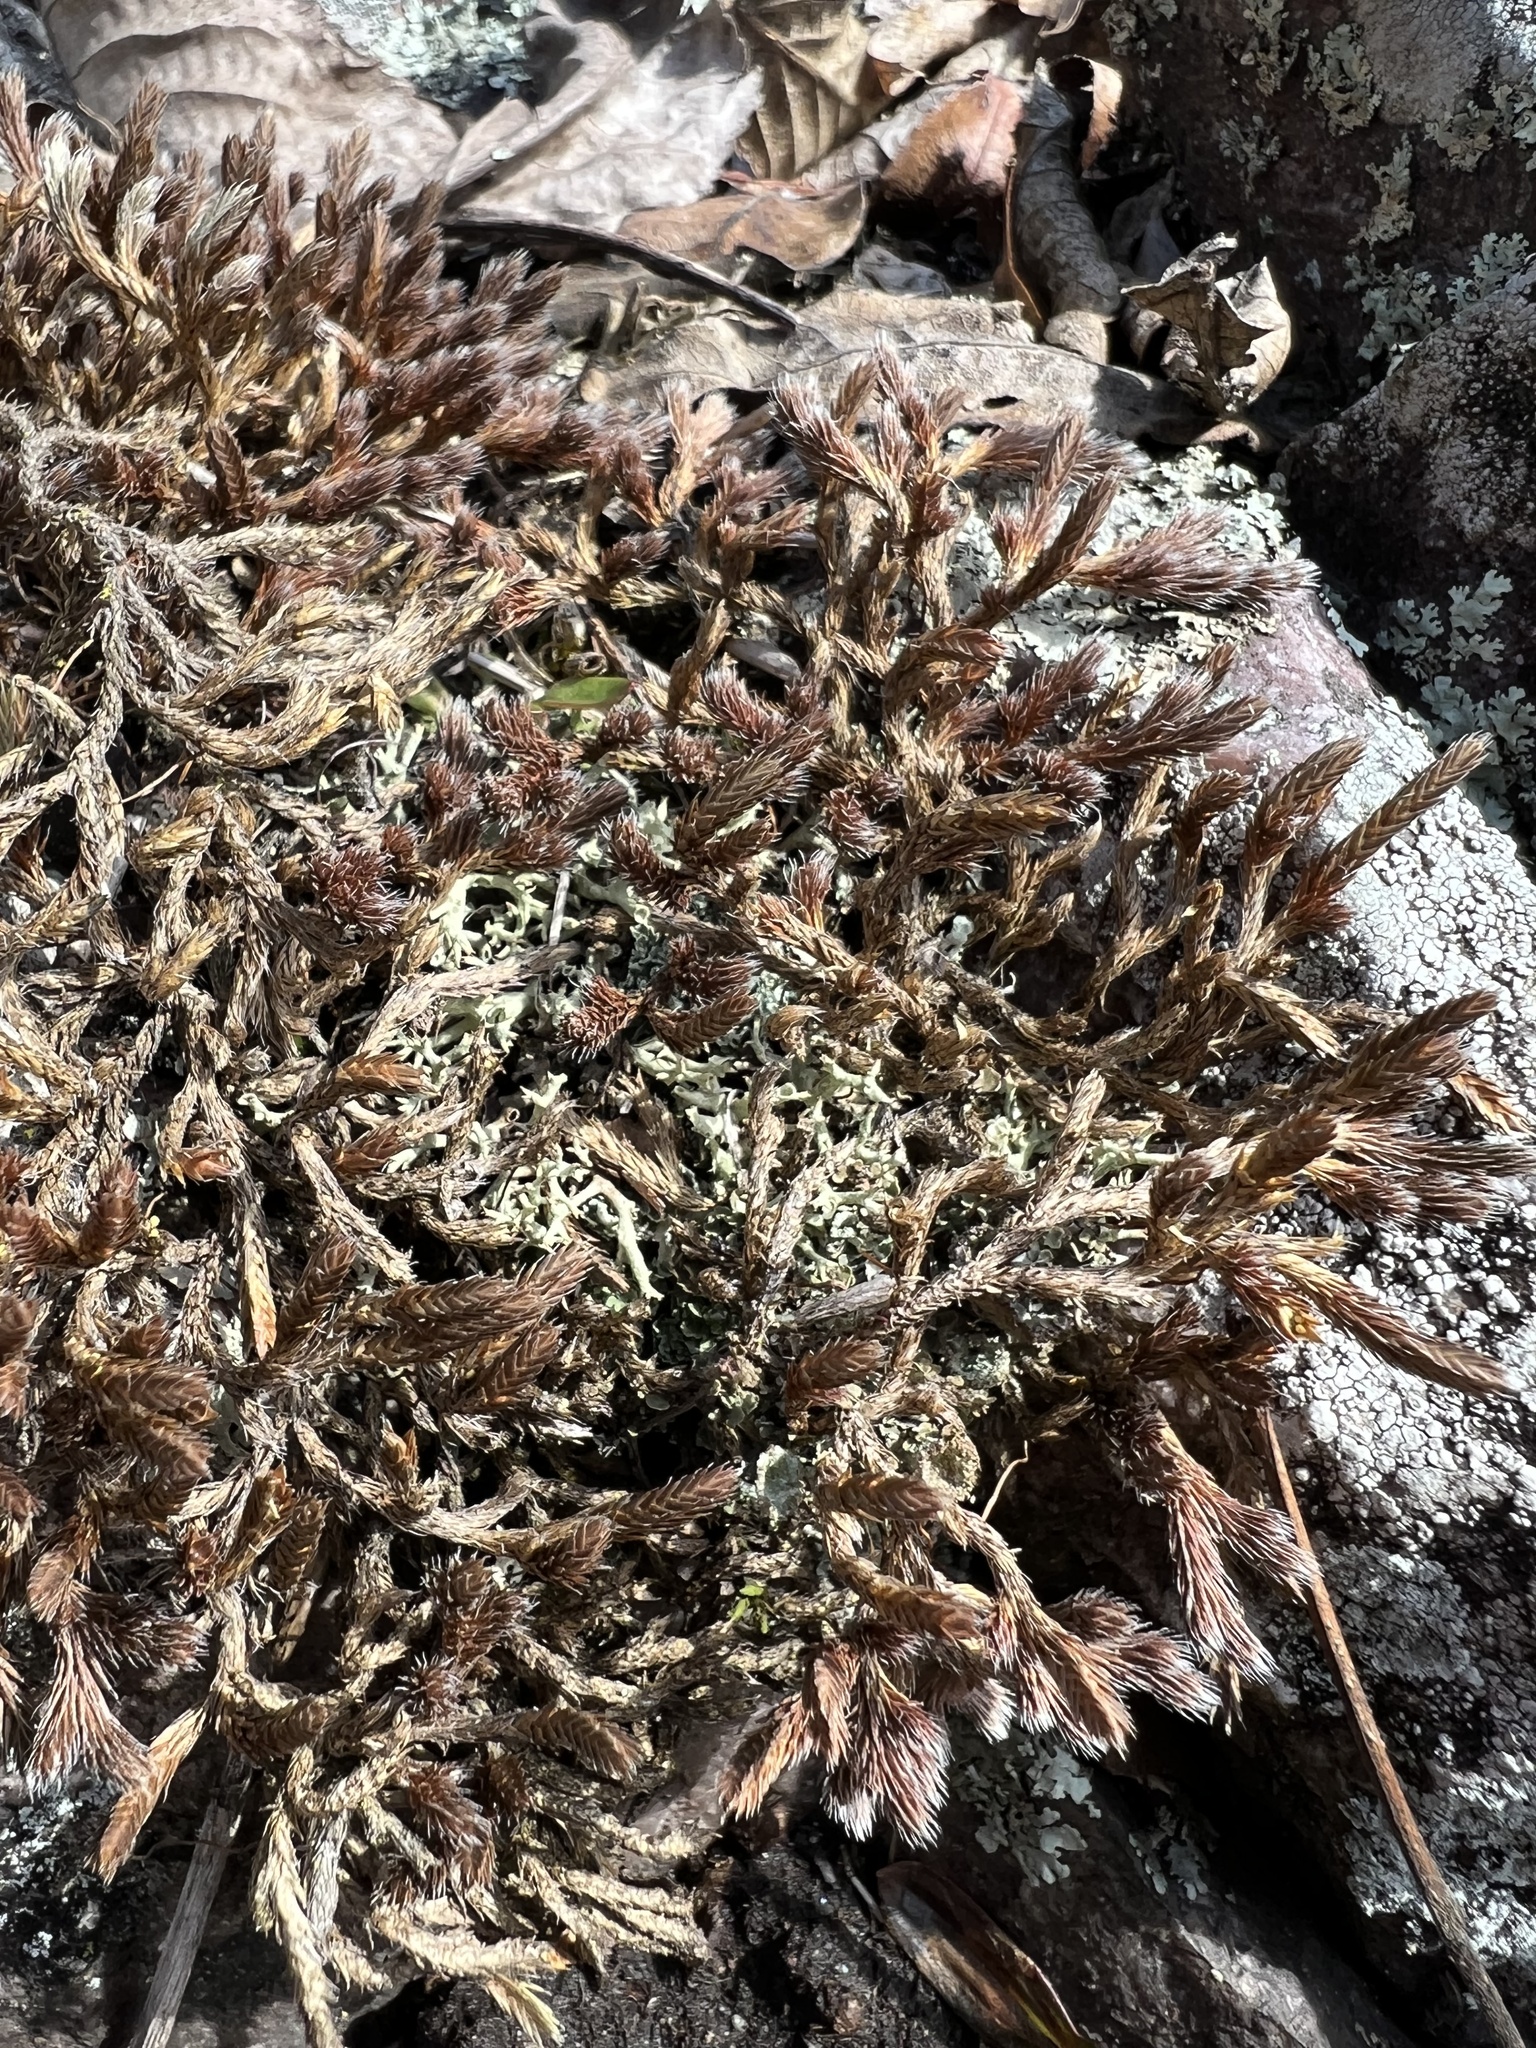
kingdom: Plantae
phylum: Tracheophyta
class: Lycopodiopsida
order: Selaginellales
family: Selaginellaceae
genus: Selaginella
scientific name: Selaginella rupestris
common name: Dwarf spikemoss
